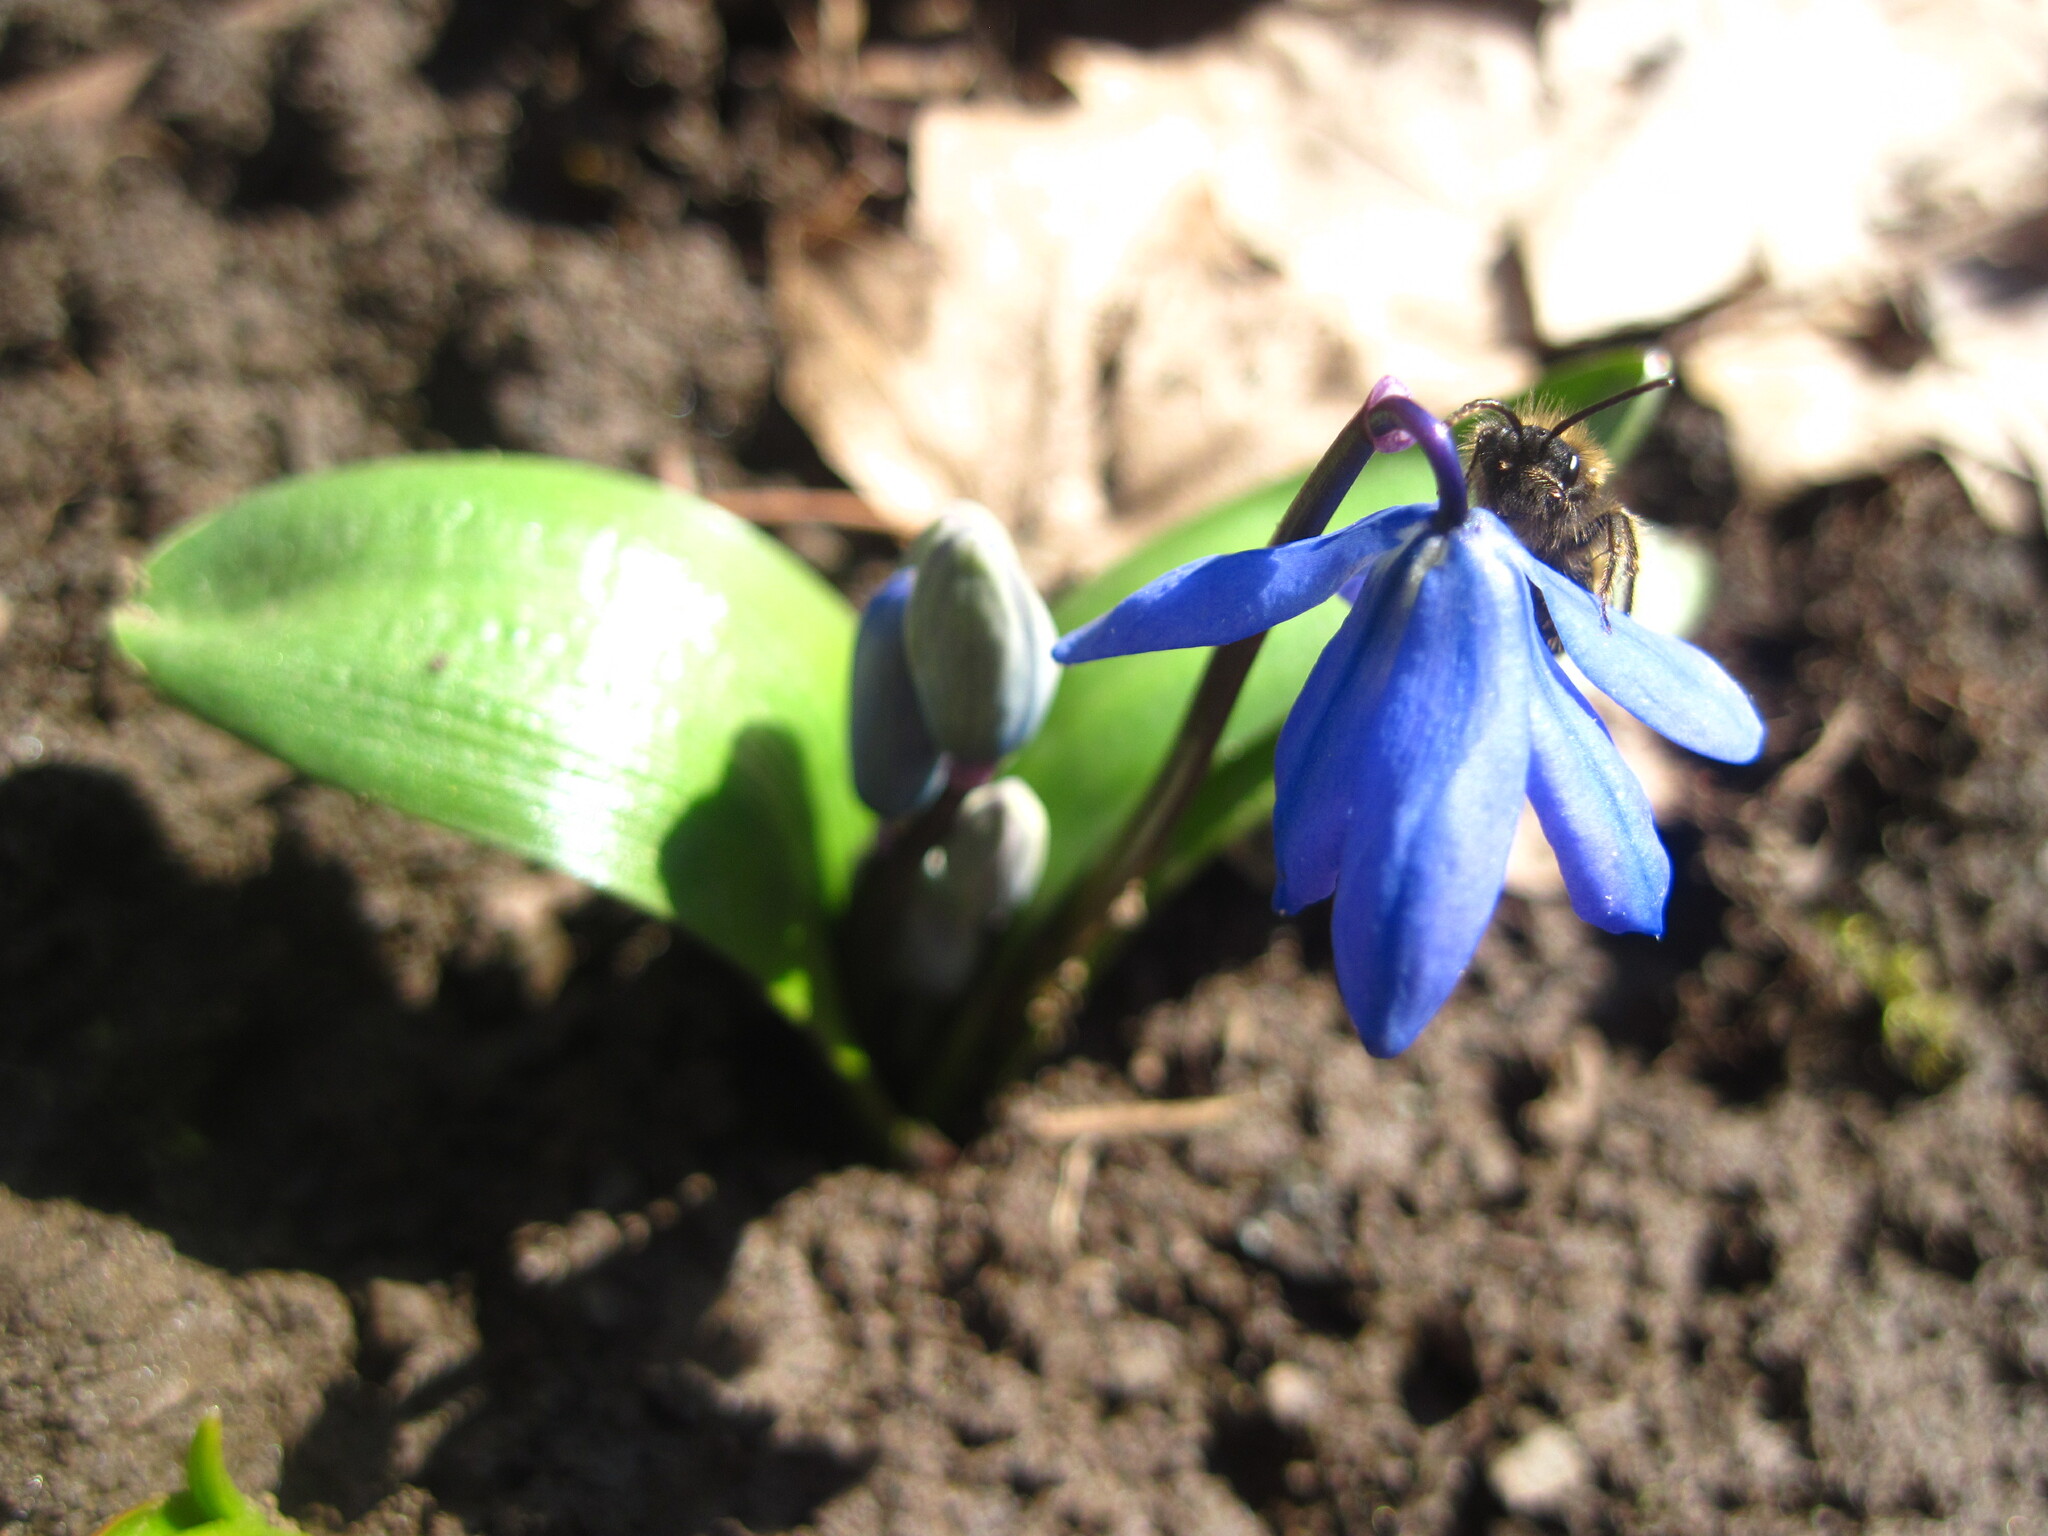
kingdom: Plantae
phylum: Tracheophyta
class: Liliopsida
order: Asparagales
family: Asparagaceae
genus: Scilla
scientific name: Scilla siberica
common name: Siberian squill
